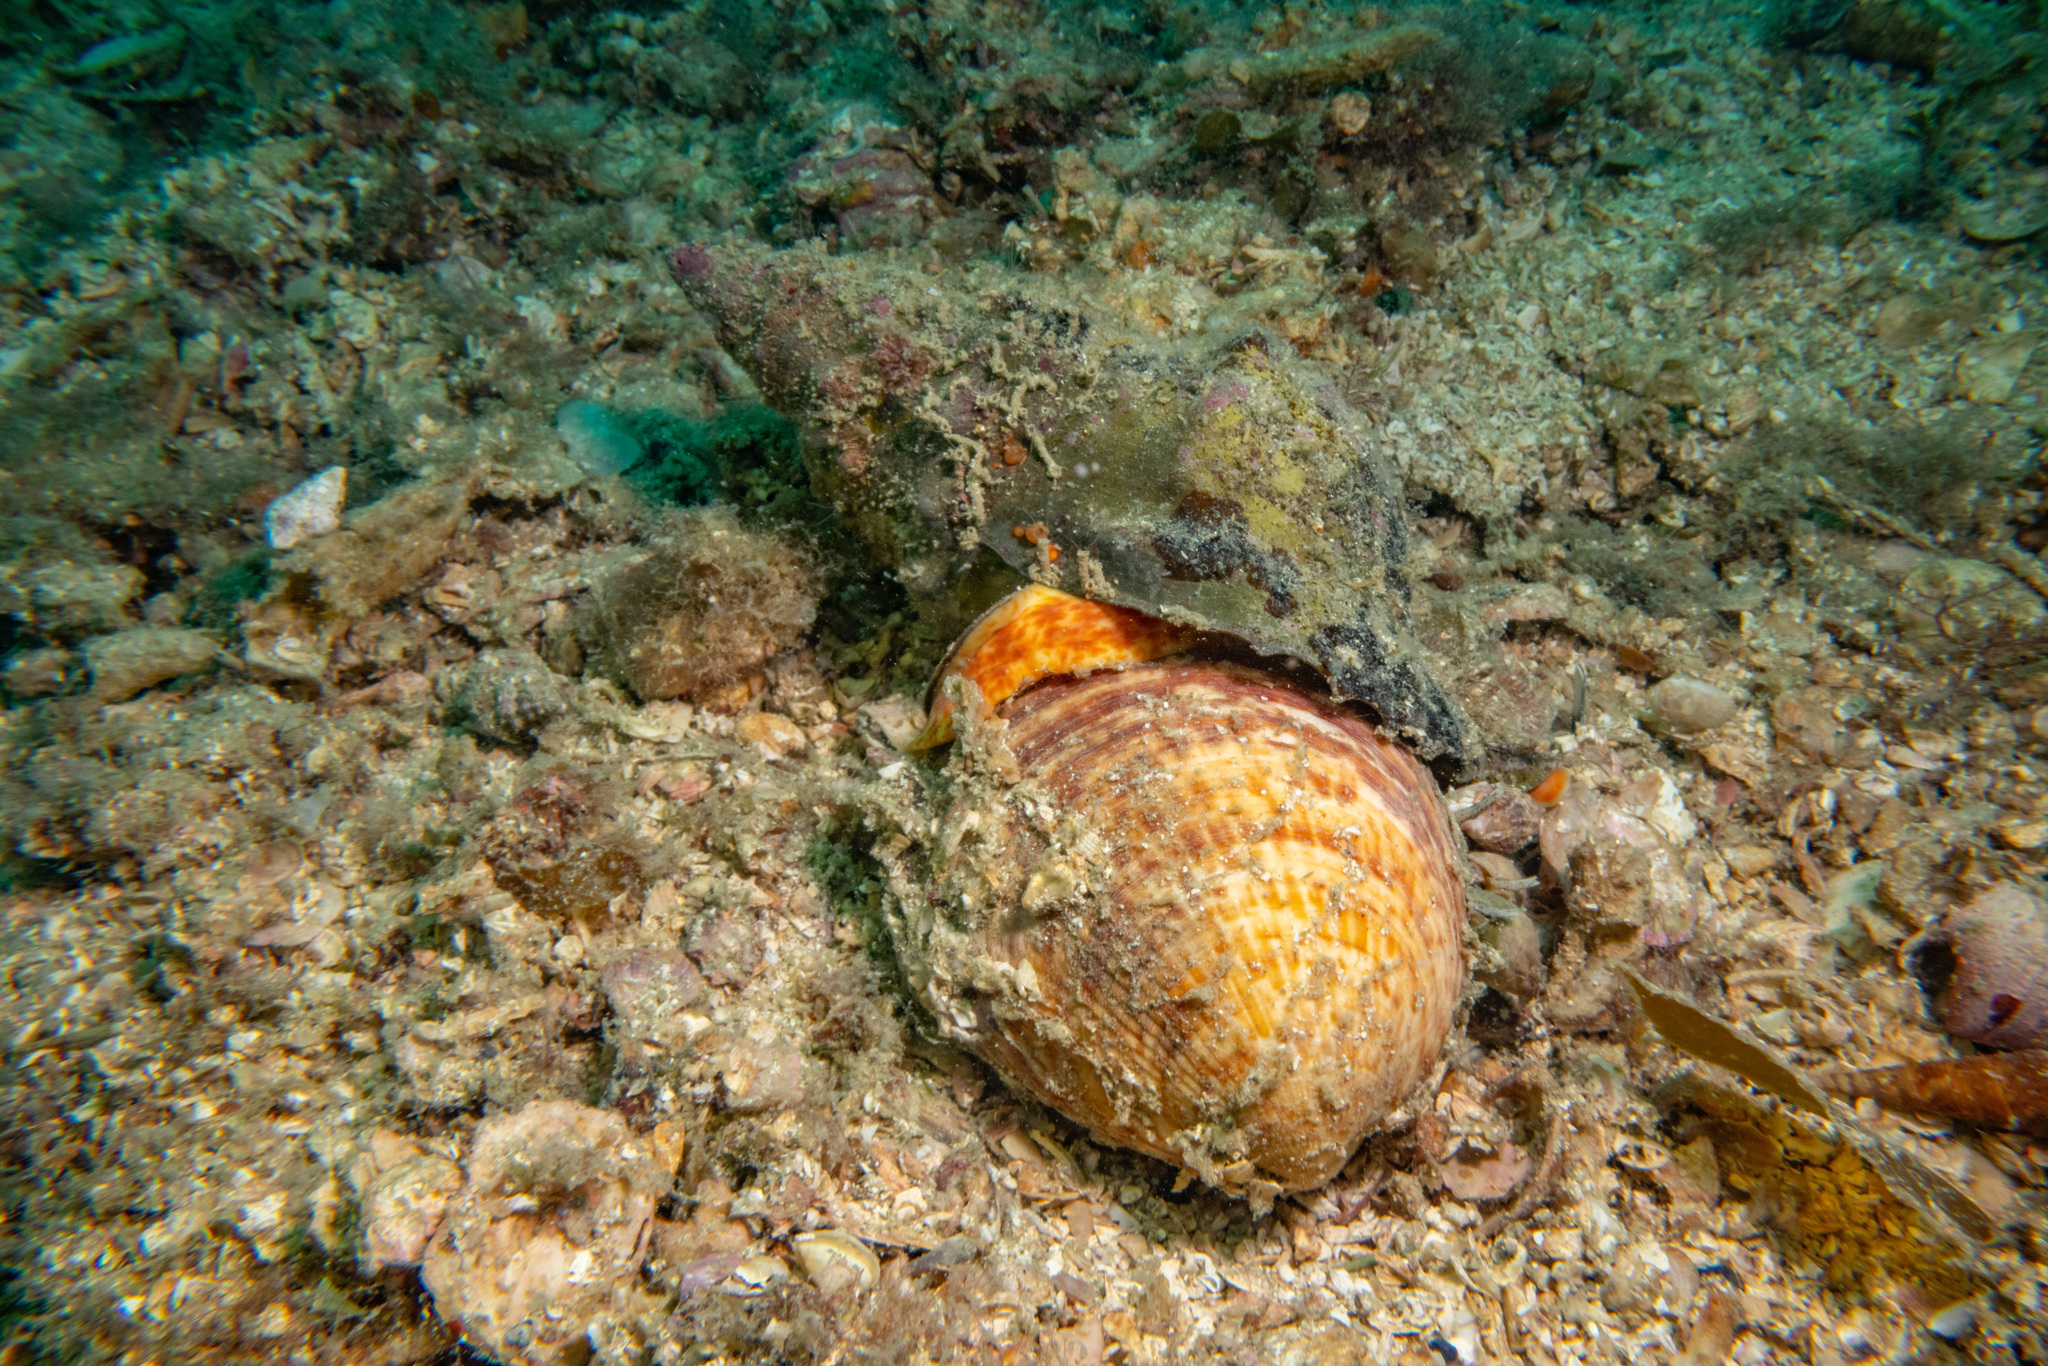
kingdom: Animalia
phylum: Mollusca
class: Gastropoda
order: Littorinimorpha
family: Charoniidae
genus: Charonia
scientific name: Charonia lampas
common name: Knobbed triton
